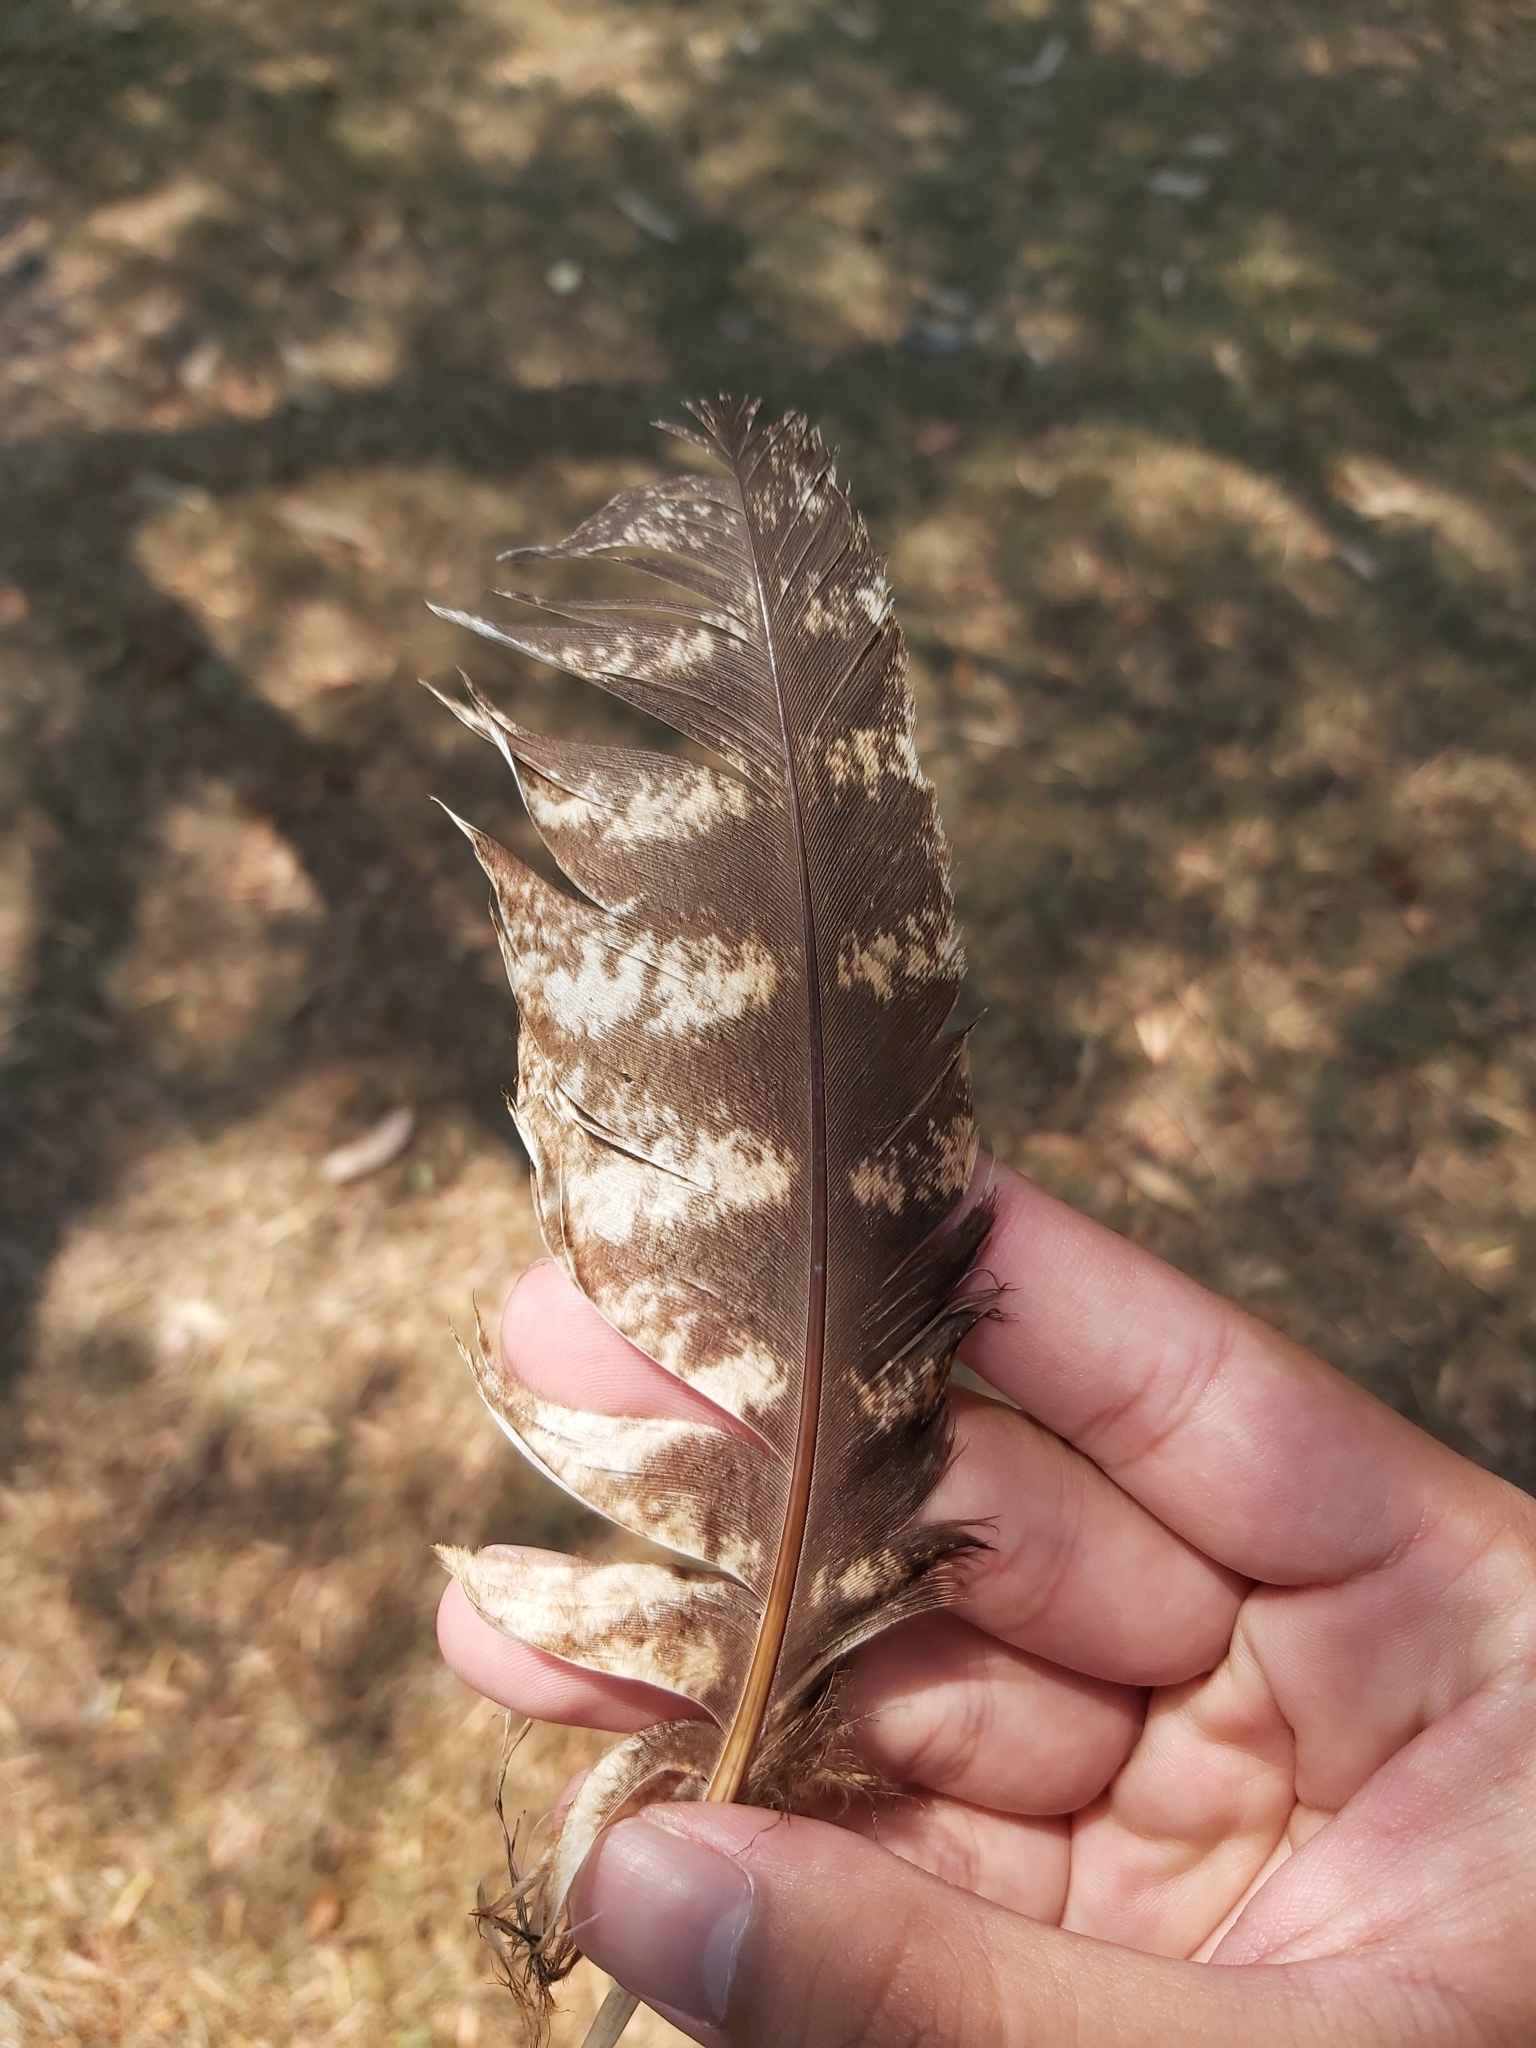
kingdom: Animalia
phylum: Chordata
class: Aves
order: Caprimulgiformes
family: Podargidae
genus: Podargus
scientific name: Podargus strigoides
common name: Tawny frogmouth
